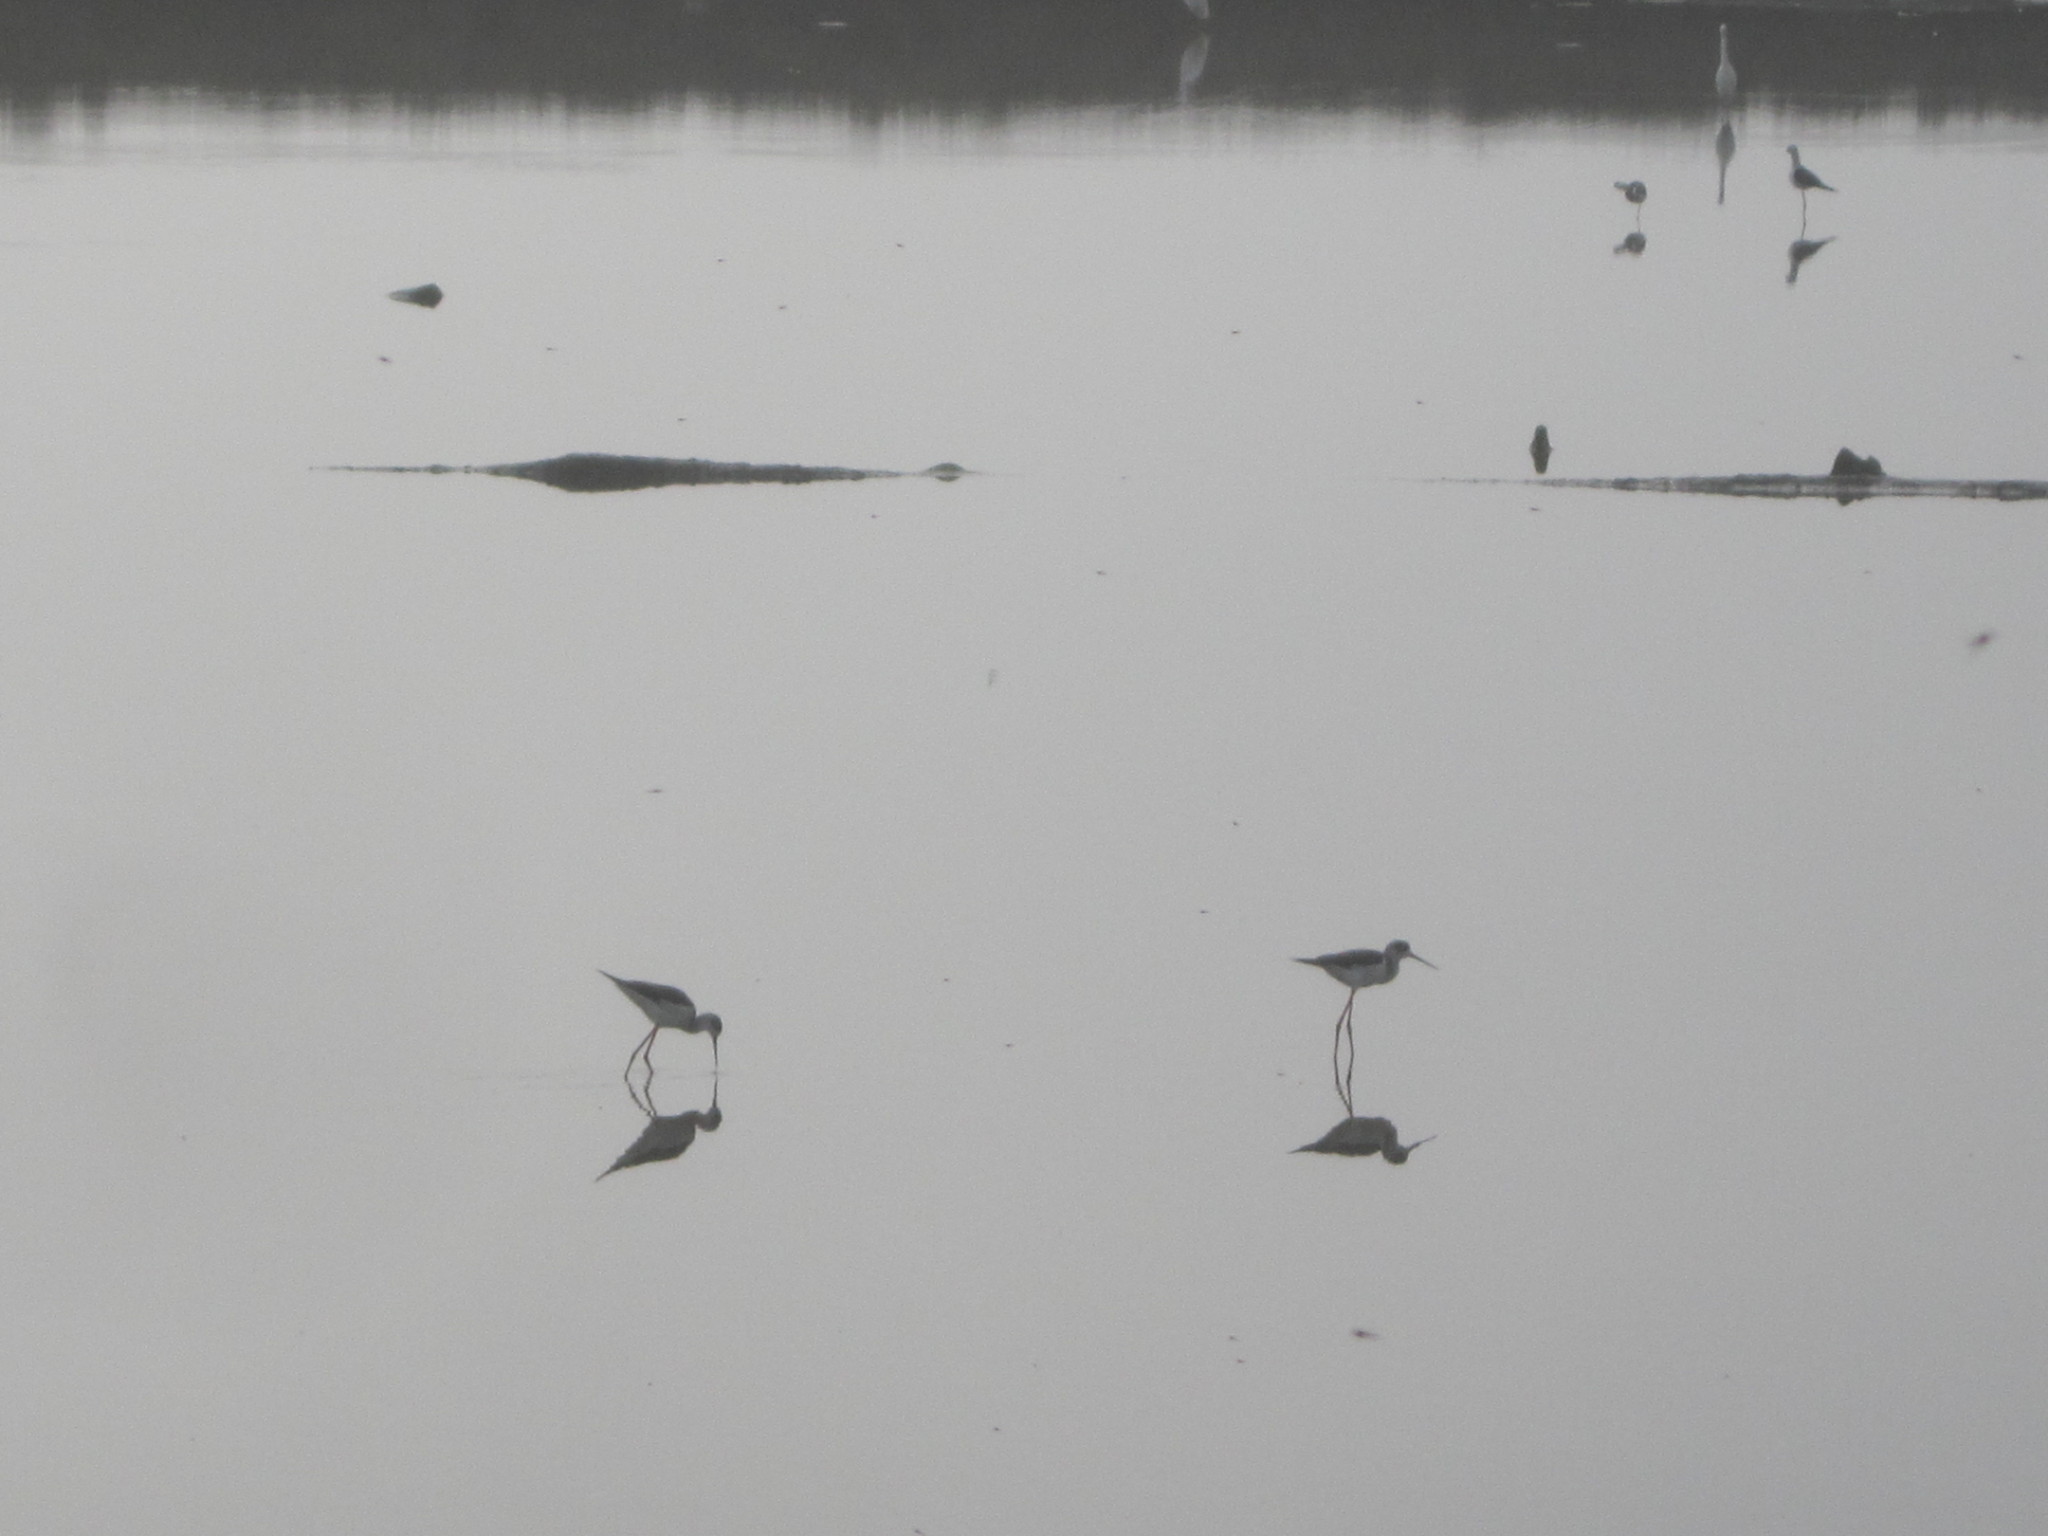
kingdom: Animalia
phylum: Chordata
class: Aves
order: Charadriiformes
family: Recurvirostridae
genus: Himantopus
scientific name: Himantopus himantopus
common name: Black-winged stilt
